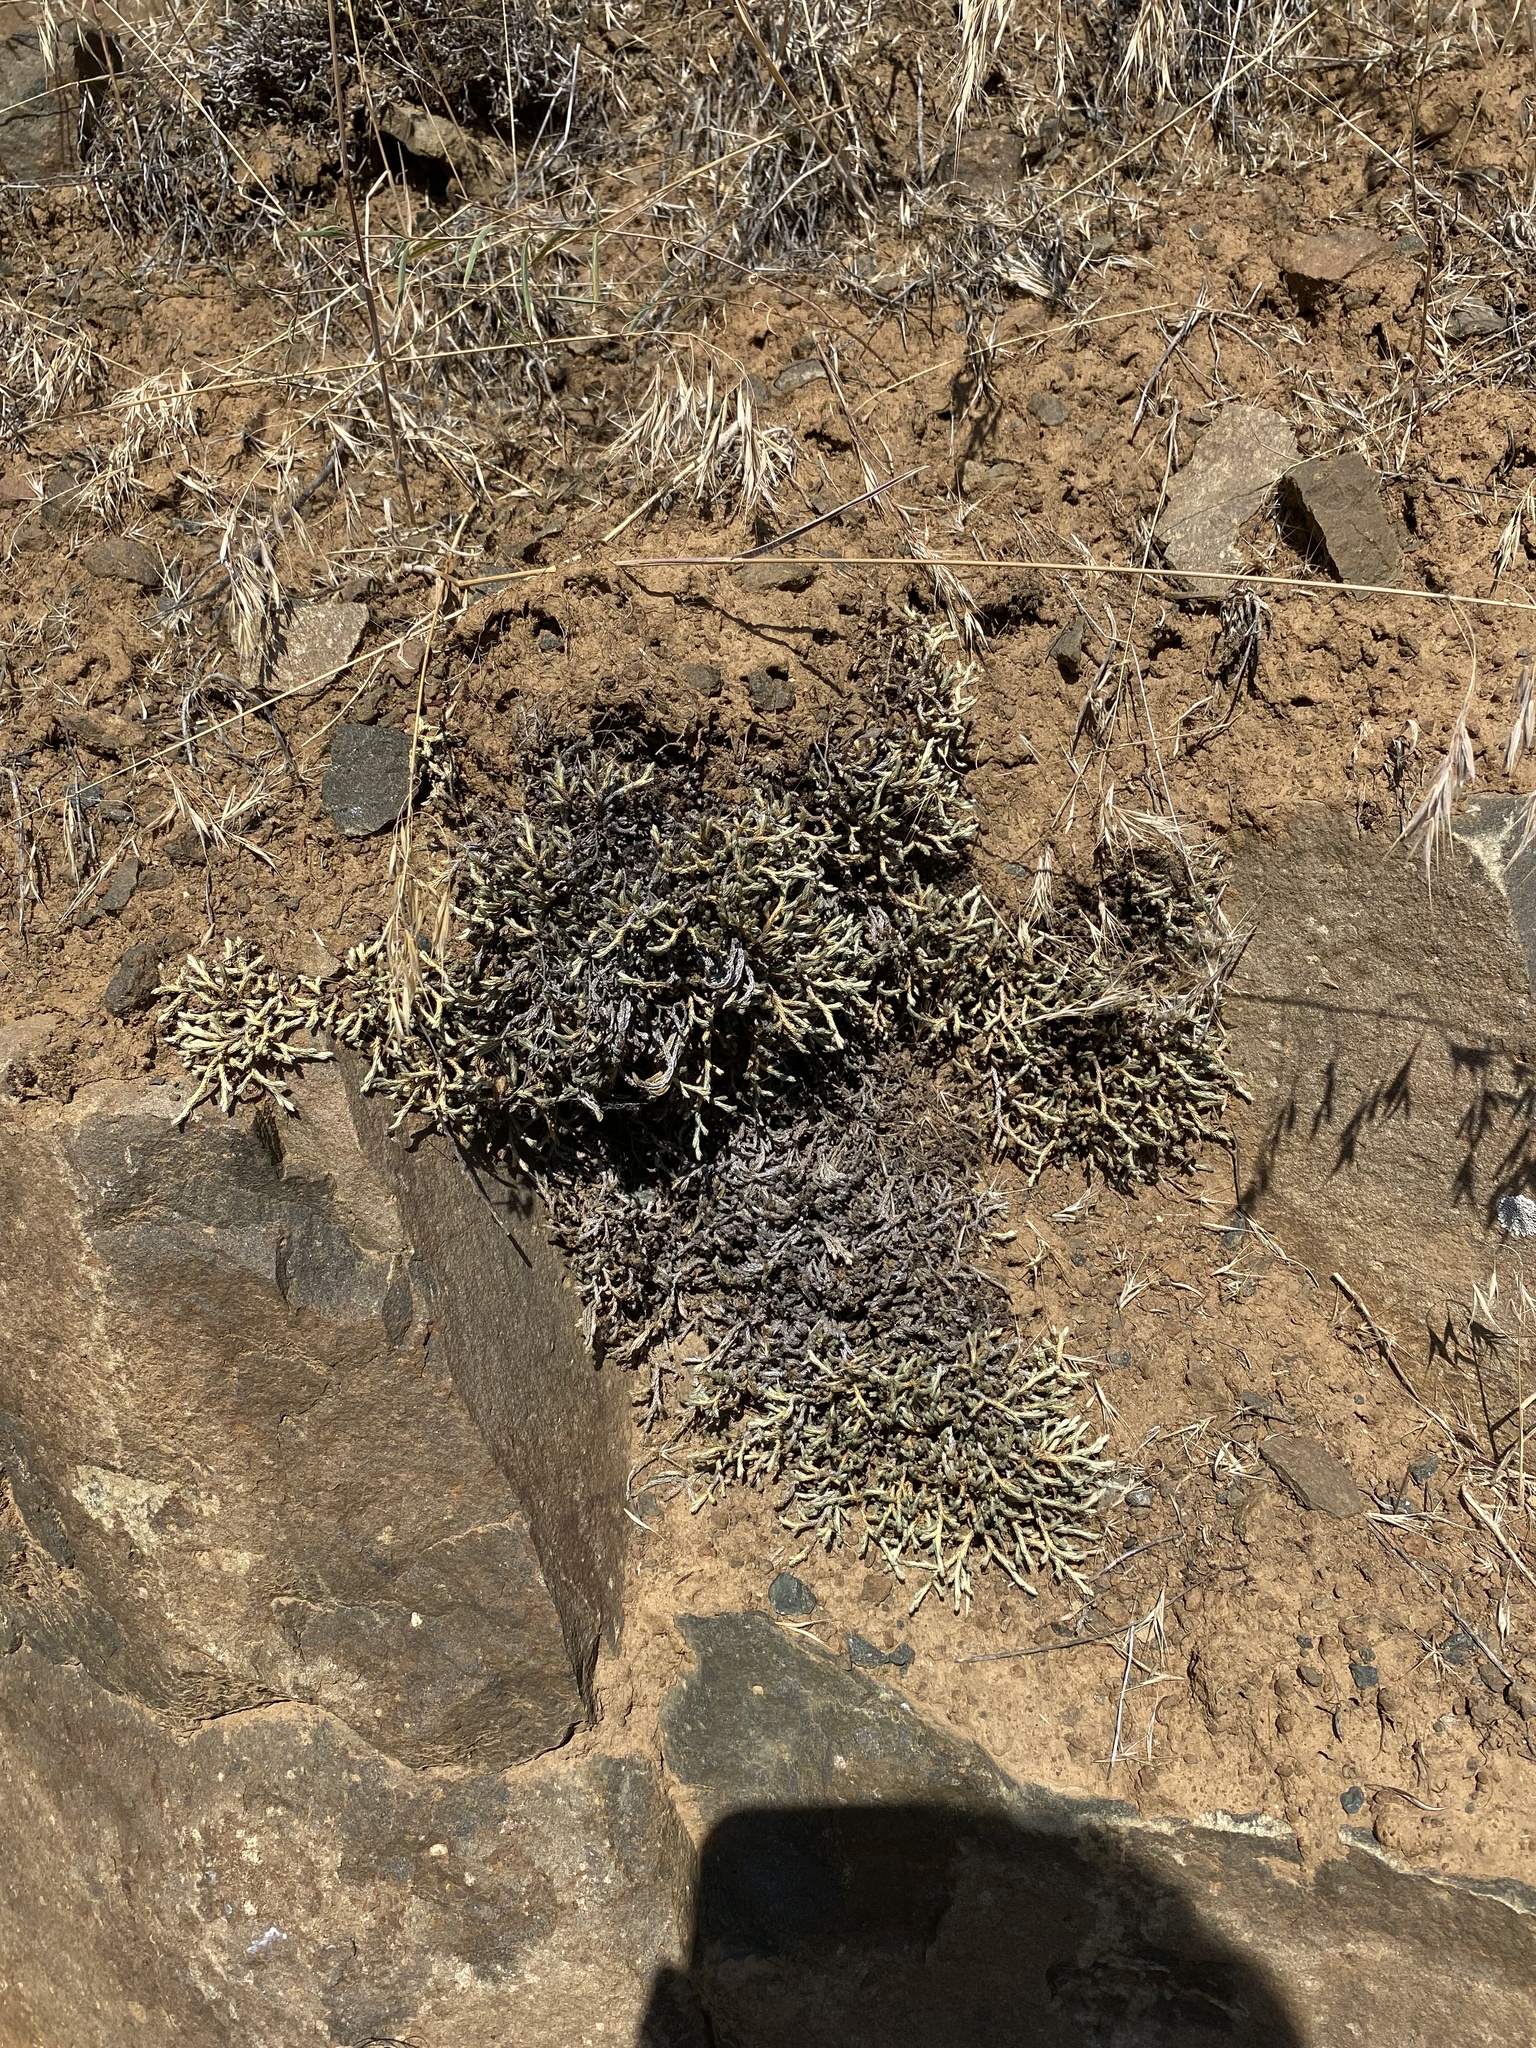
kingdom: Plantae
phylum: Tracheophyta
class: Lycopodiopsida
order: Selaginellales
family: Selaginellaceae
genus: Selaginella
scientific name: Selaginella wallacei
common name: Wallace's selaginella
